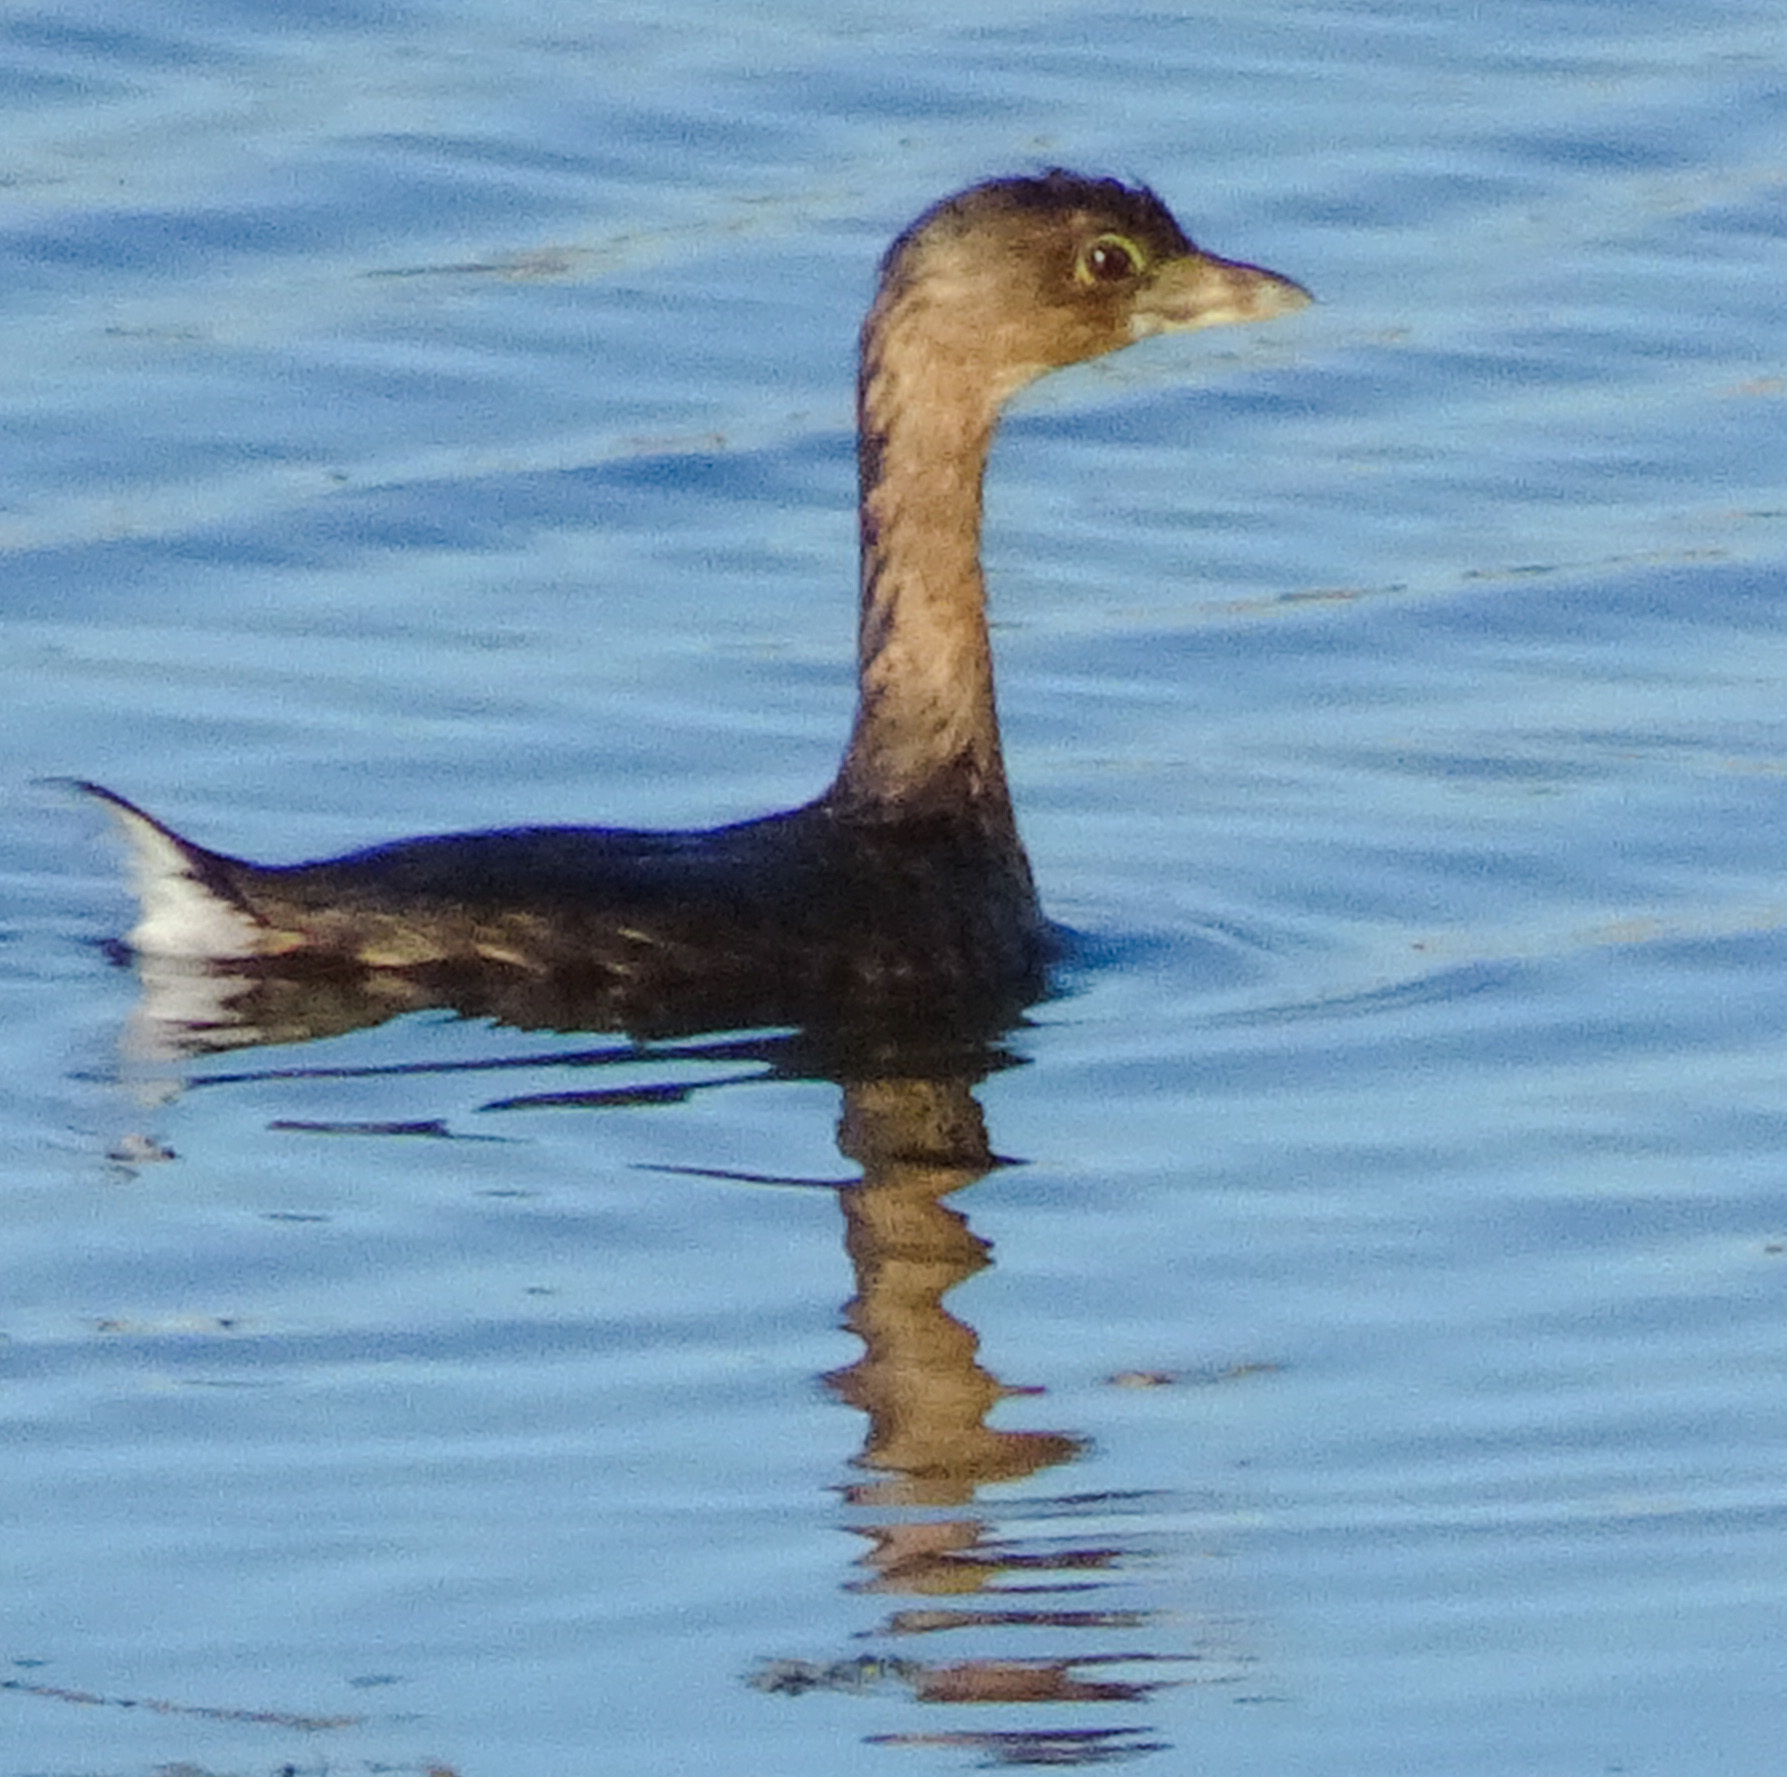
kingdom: Animalia
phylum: Chordata
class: Aves
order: Podicipediformes
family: Podicipedidae
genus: Podilymbus
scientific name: Podilymbus podiceps
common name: Pied-billed grebe
